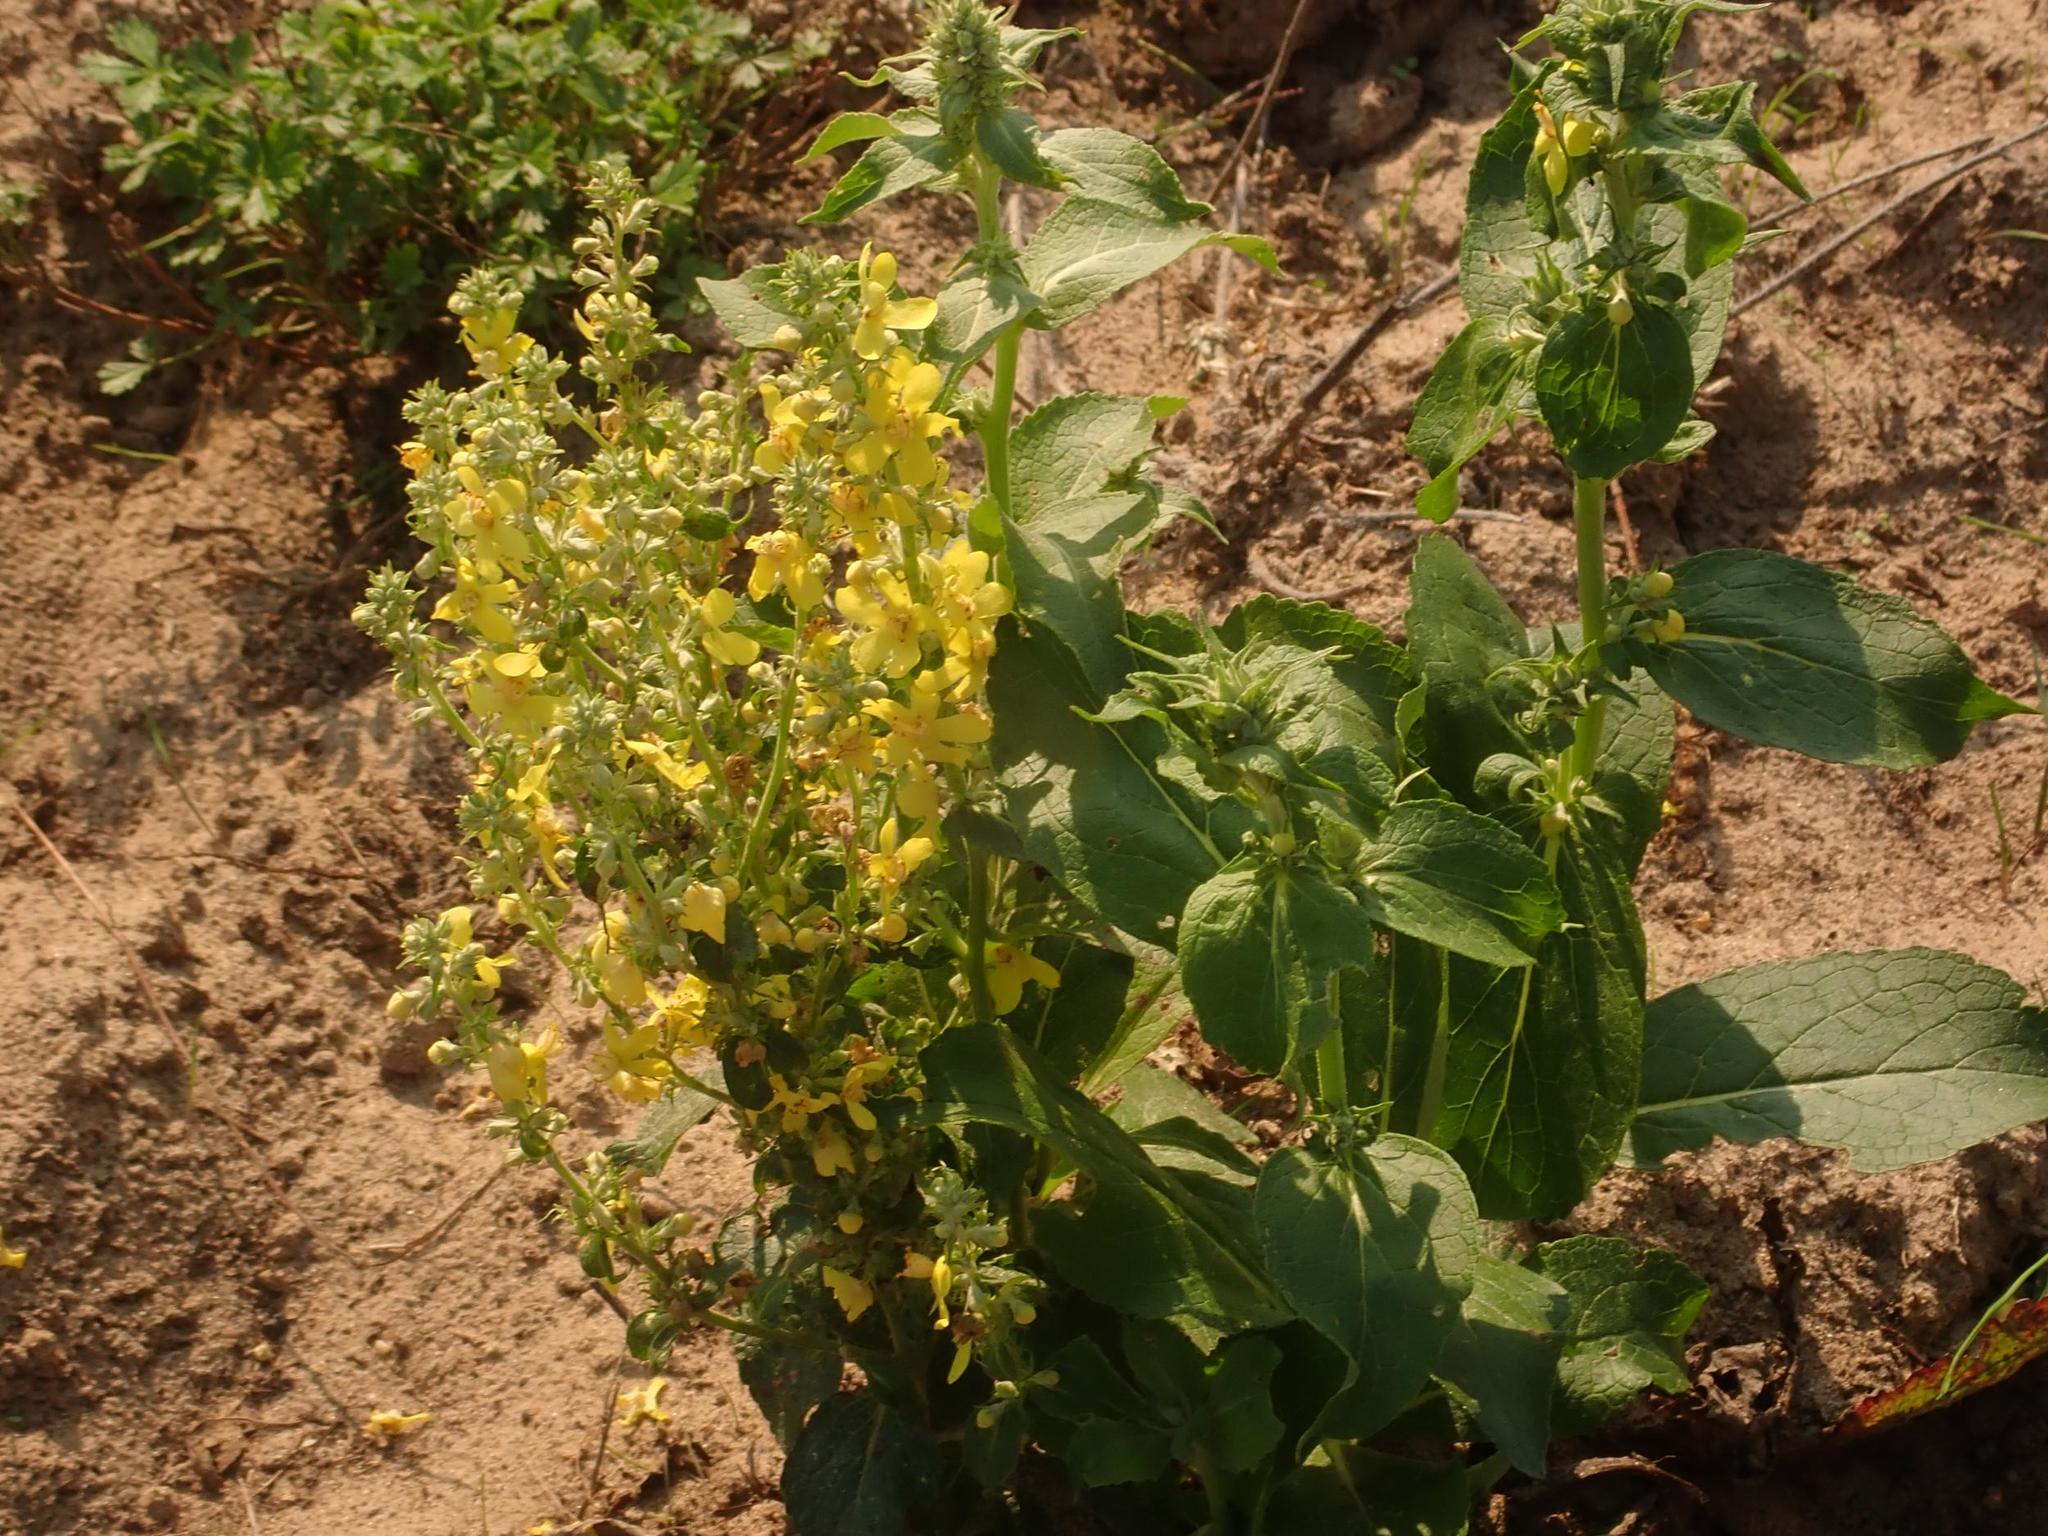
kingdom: Plantae
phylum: Tracheophyta
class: Magnoliopsida
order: Lamiales
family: Scrophulariaceae
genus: Verbascum
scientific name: Verbascum lychnitis
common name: White mullein
